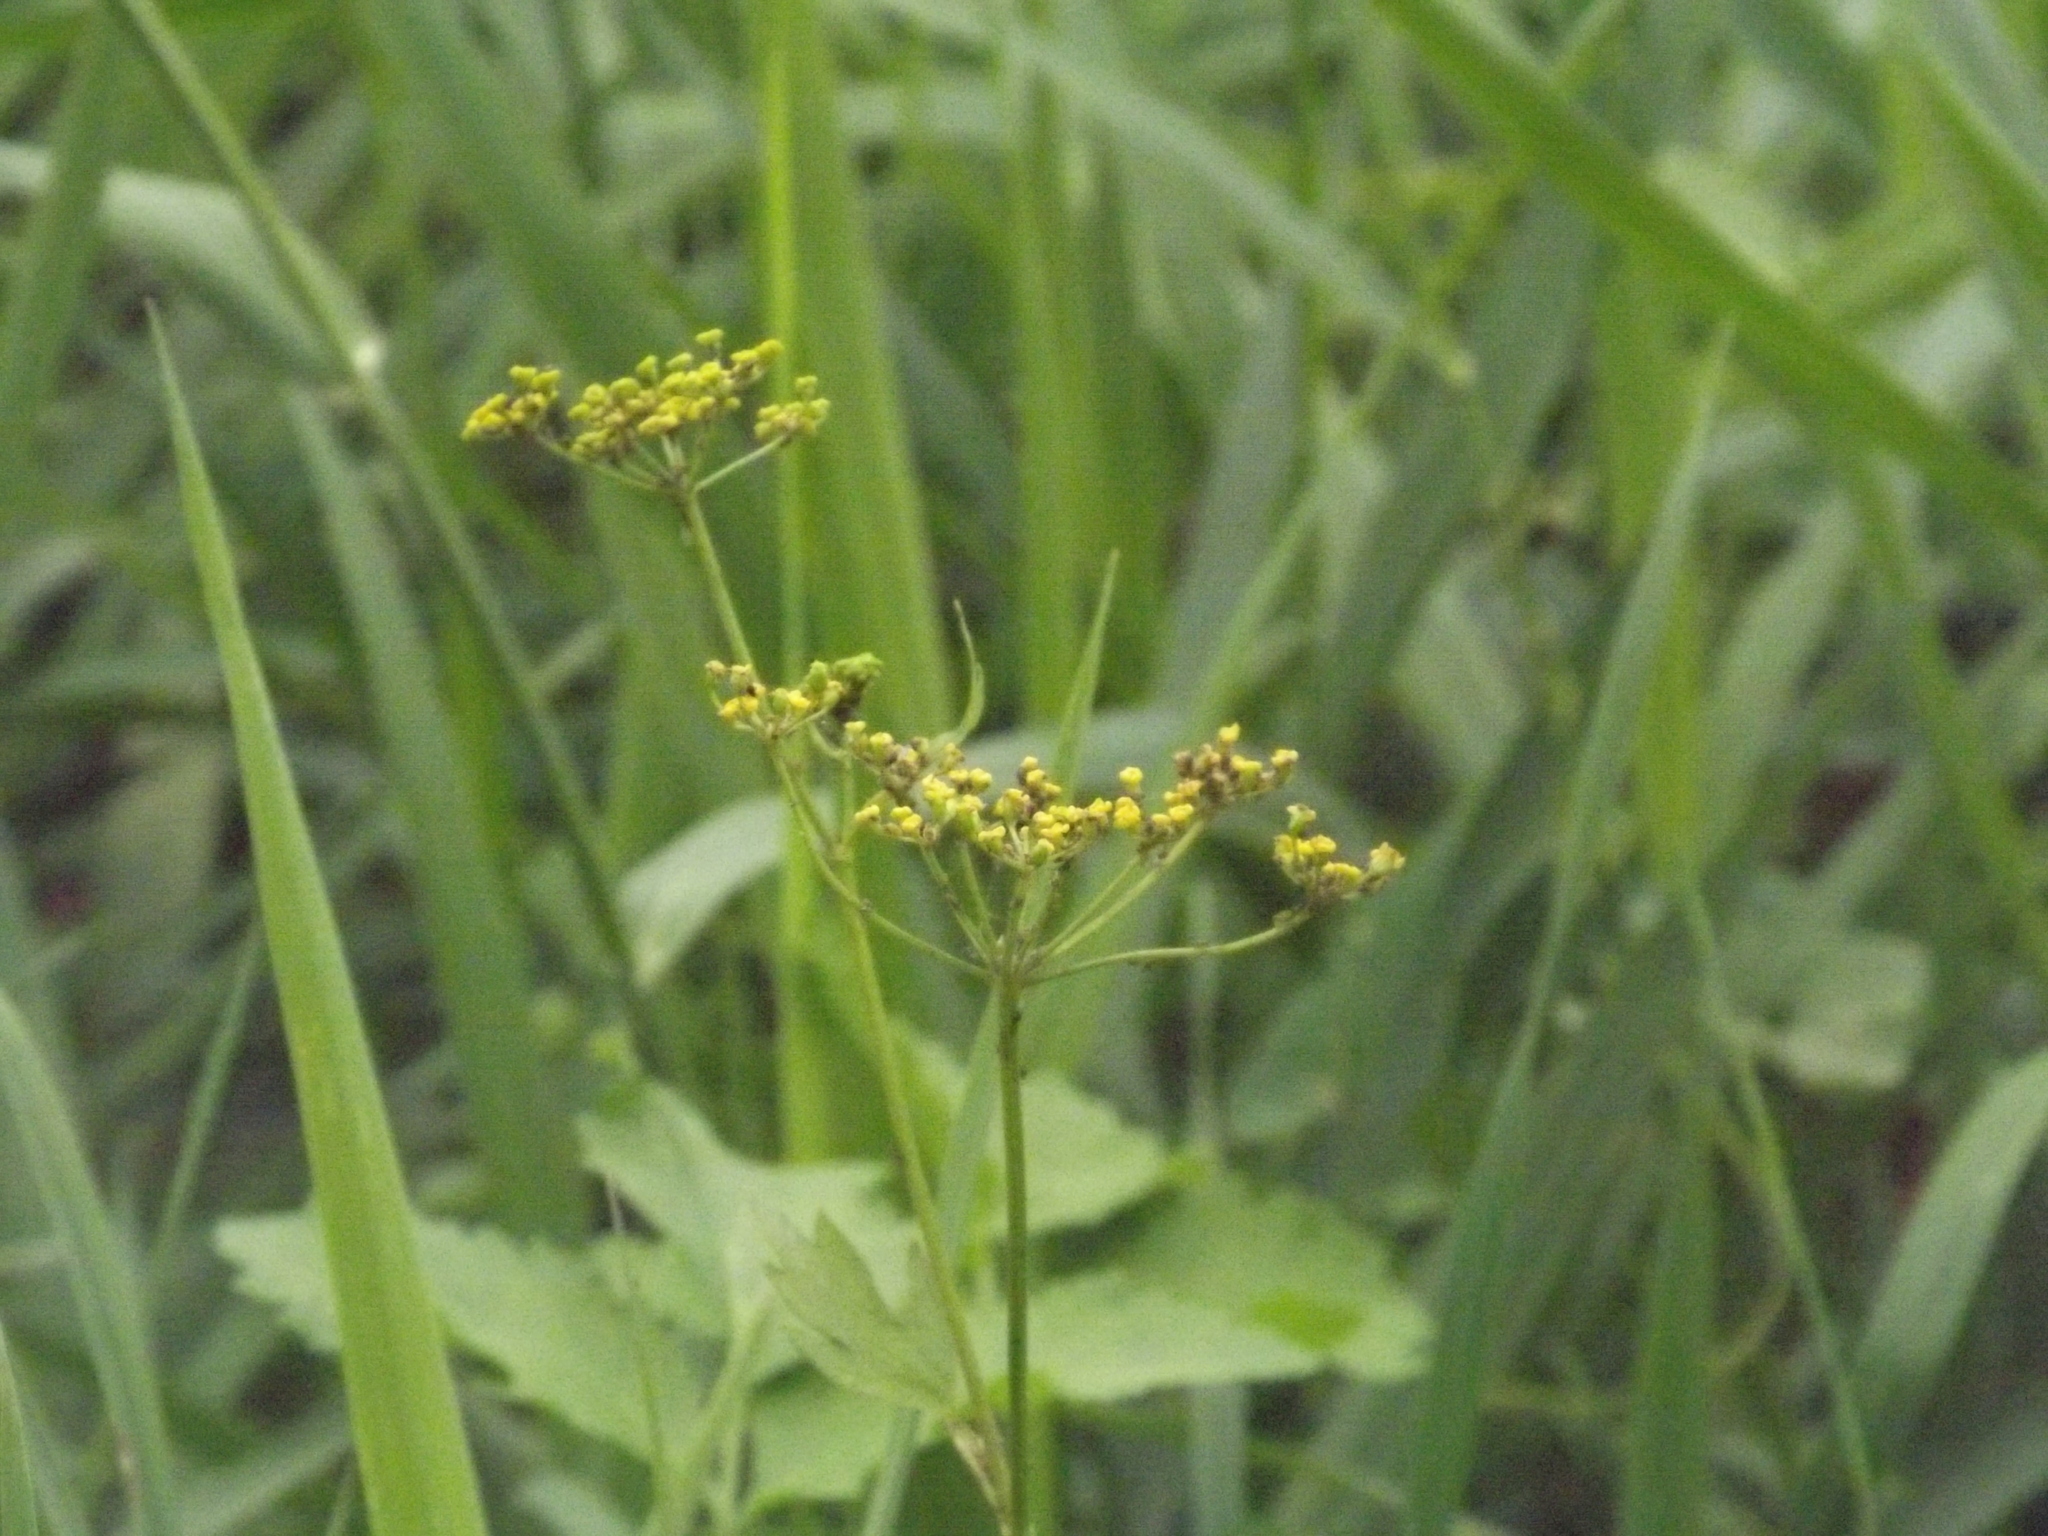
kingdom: Plantae
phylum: Tracheophyta
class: Magnoliopsida
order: Apiales
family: Apiaceae
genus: Pastinaca
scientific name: Pastinaca sativa
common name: Wild parsnip
